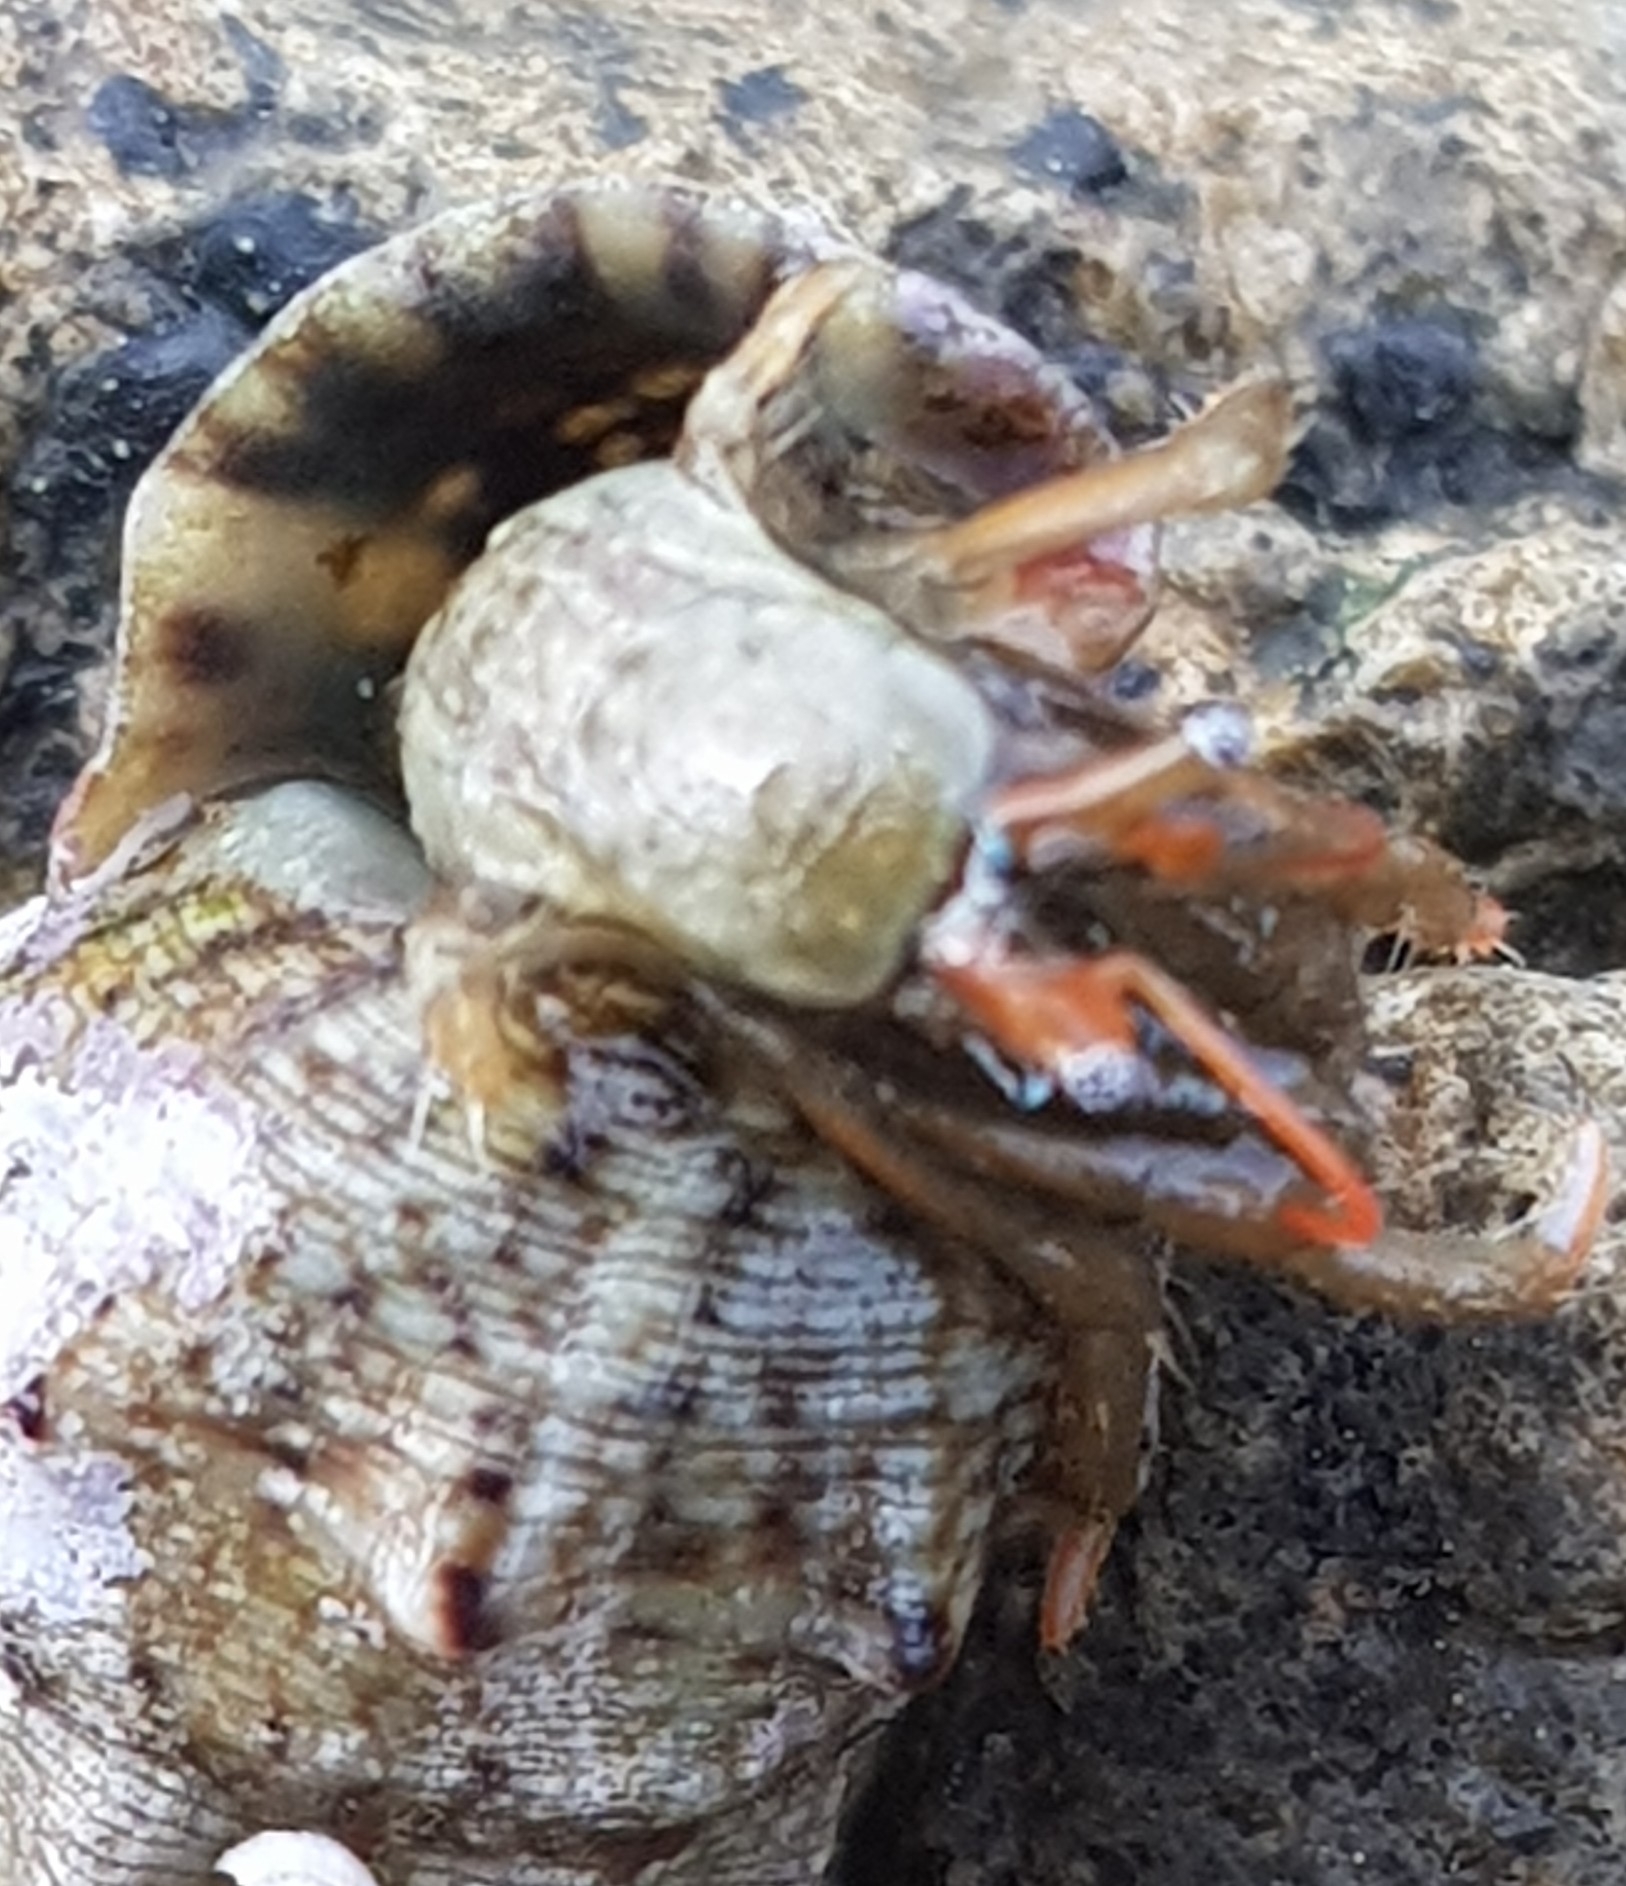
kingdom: Animalia
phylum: Arthropoda
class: Malacostraca
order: Decapoda
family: Diogenidae
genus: Clibanarius
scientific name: Clibanarius erythropus
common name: Hermit crab
